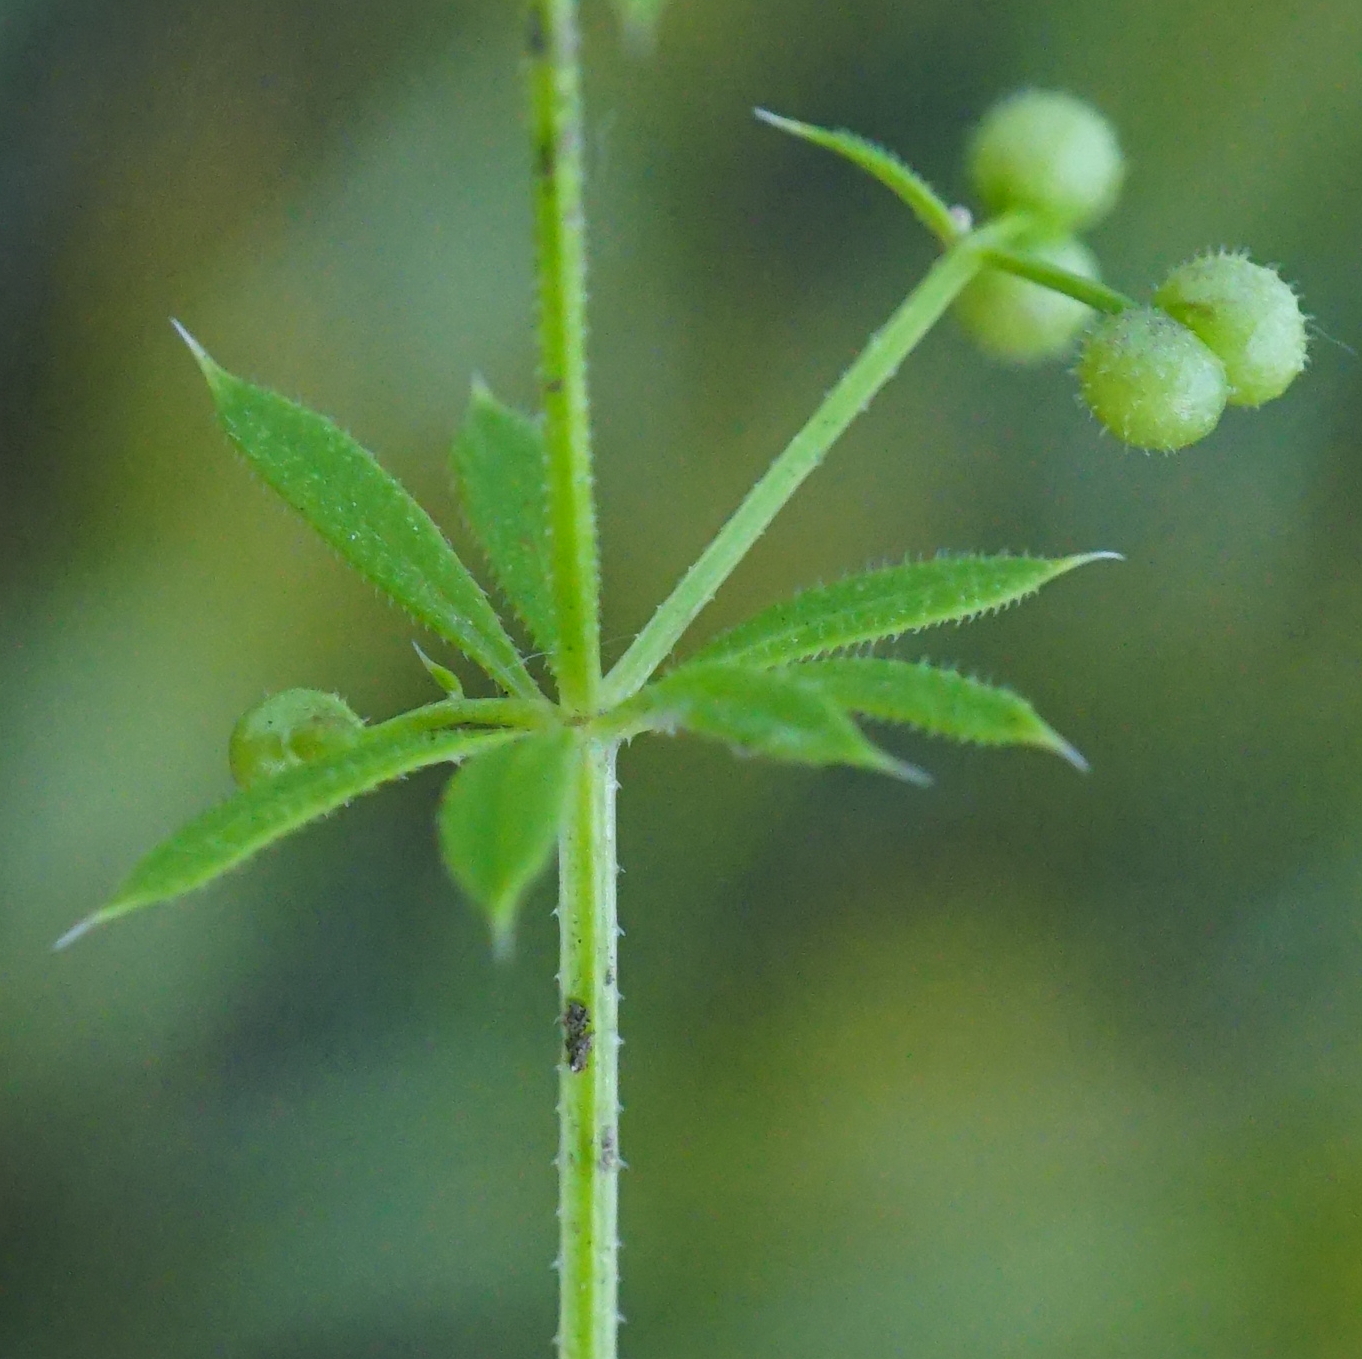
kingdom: Plantae
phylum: Tracheophyta
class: Magnoliopsida
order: Gentianales
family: Rubiaceae
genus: Galium
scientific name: Galium
